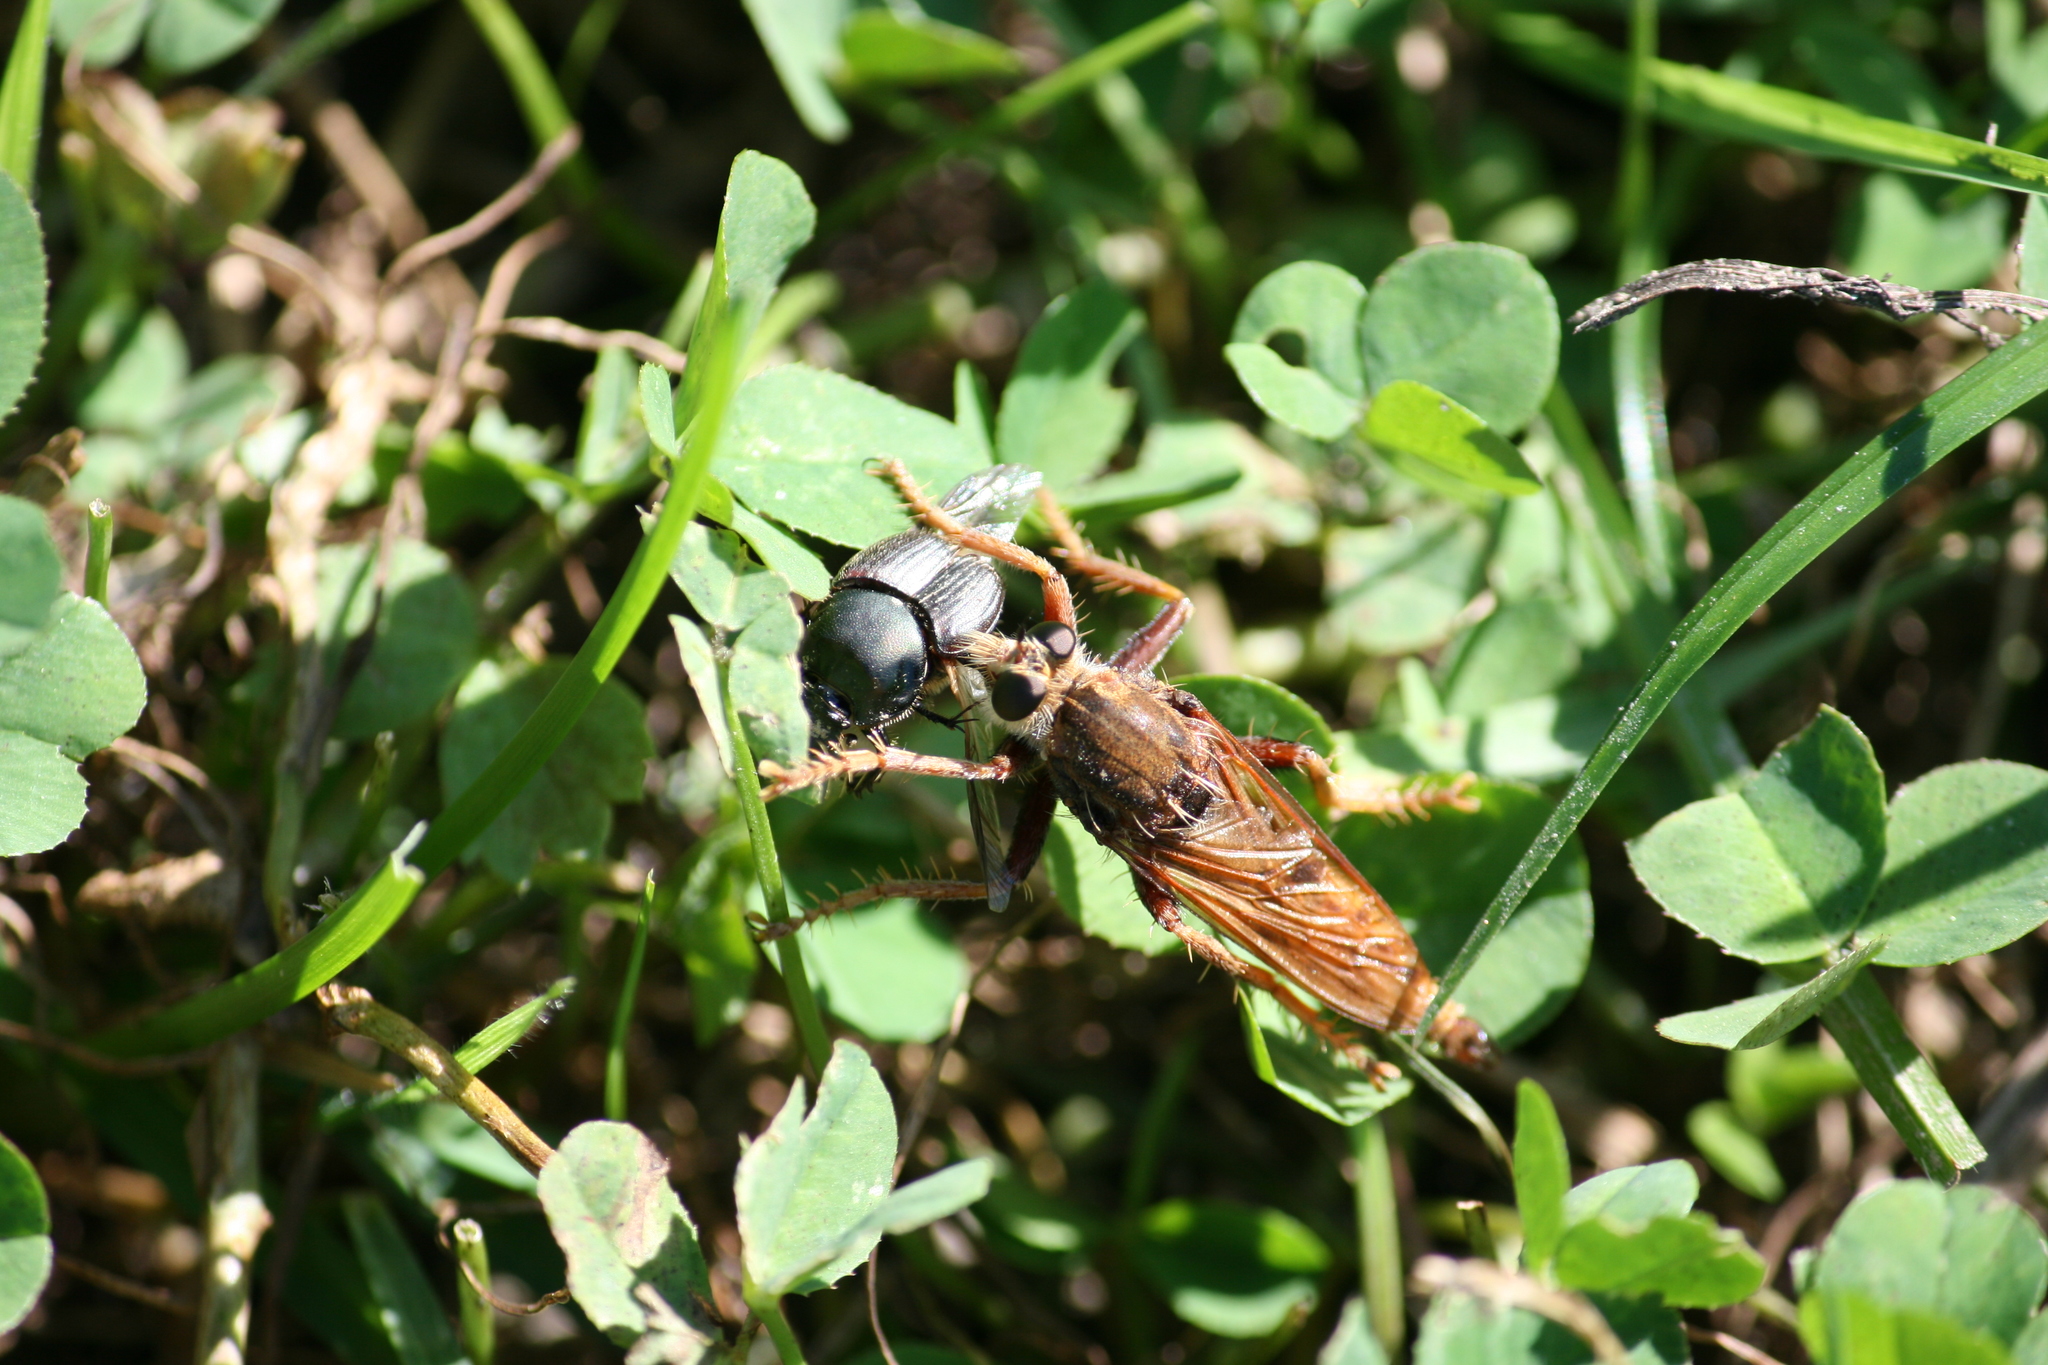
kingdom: Animalia
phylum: Arthropoda
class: Insecta
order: Diptera
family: Asilidae
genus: Asilus
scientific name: Asilus crabroniformis
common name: Hornet robberfly
